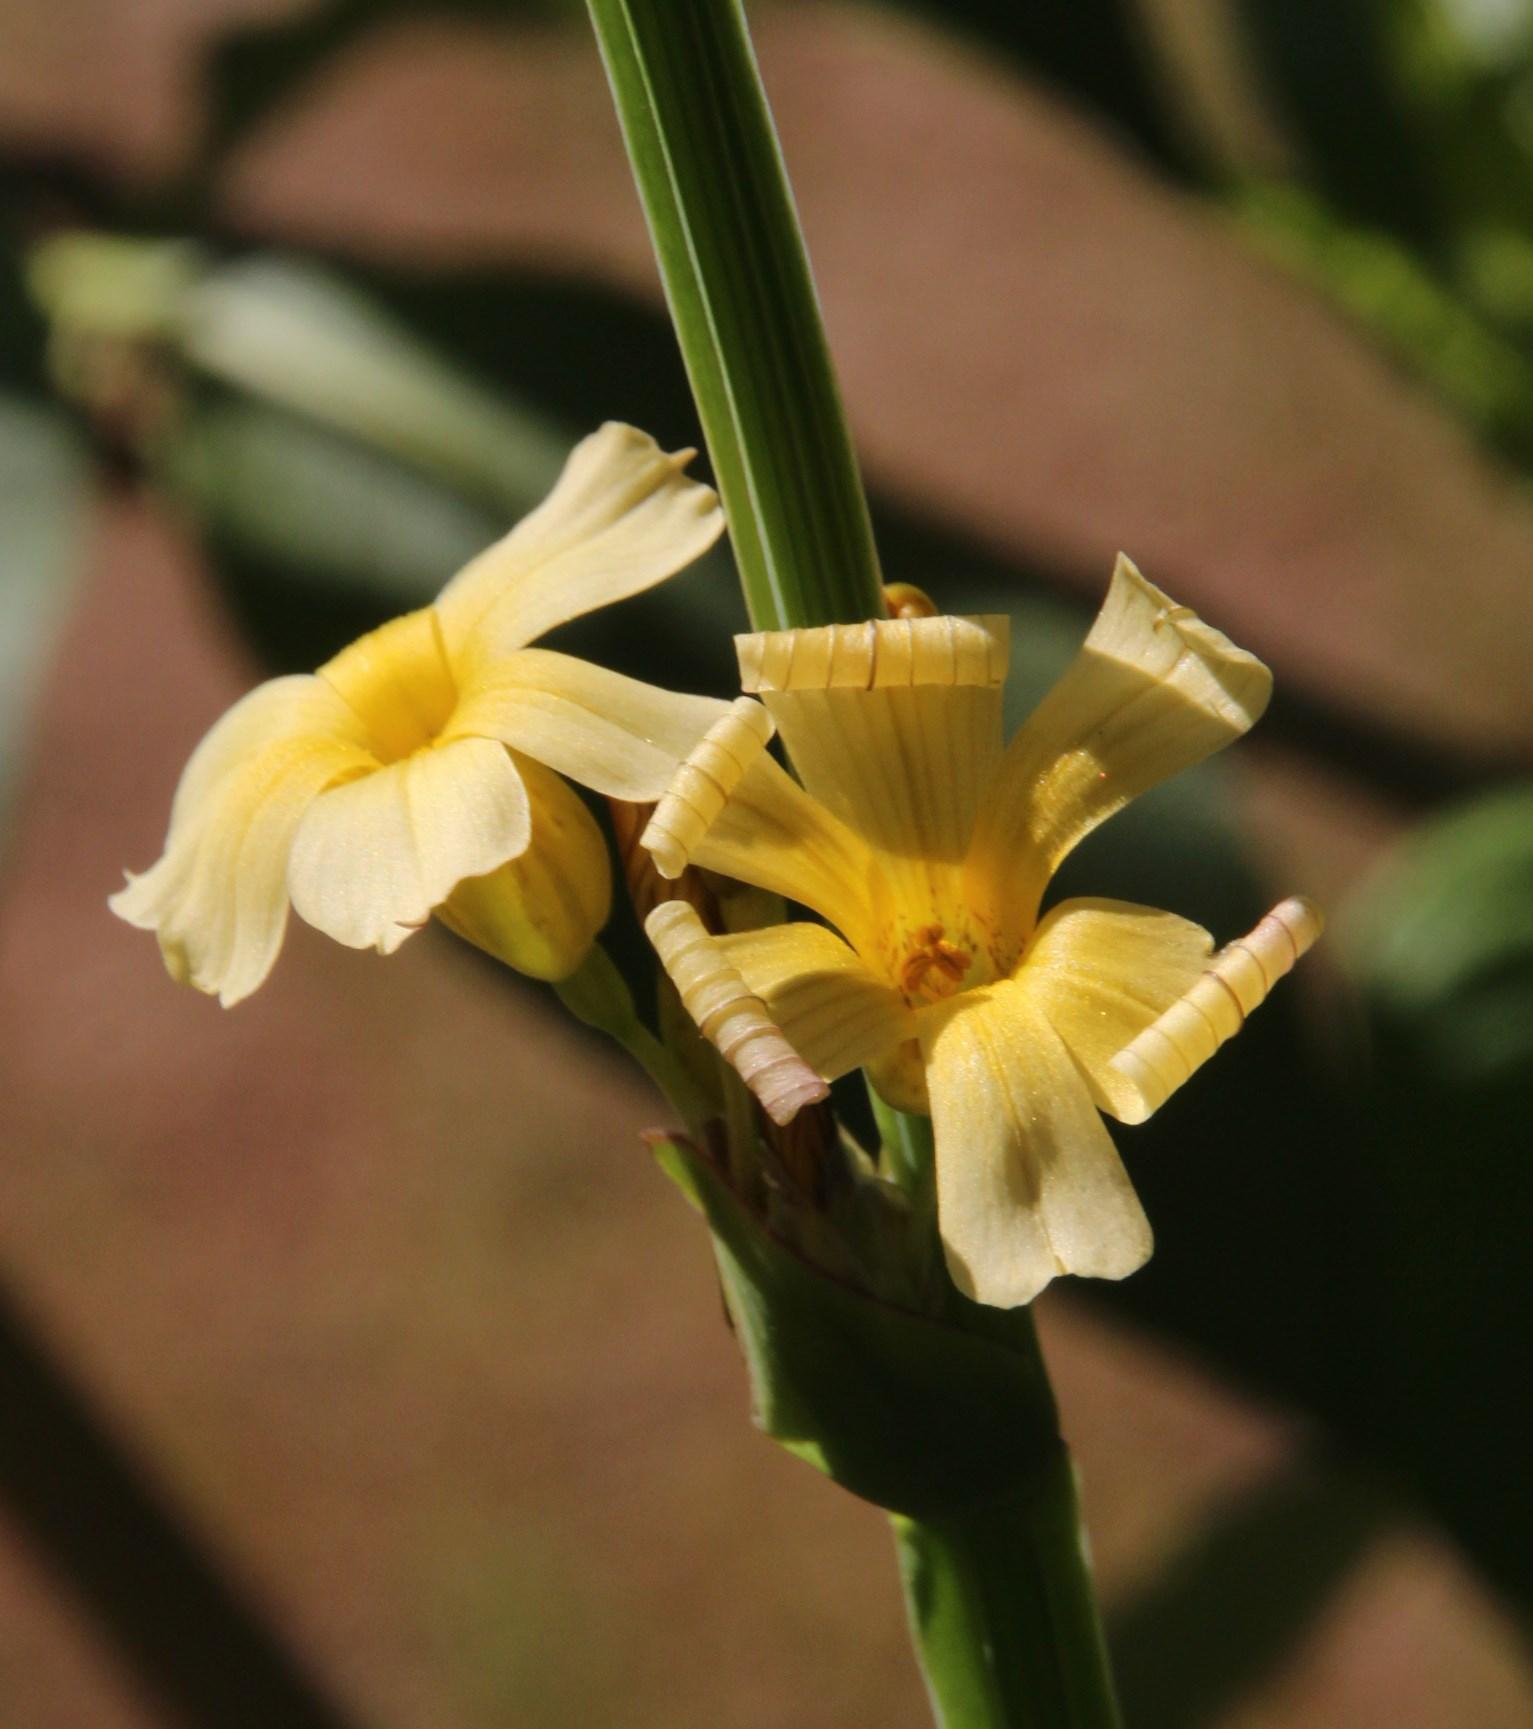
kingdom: Plantae
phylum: Tracheophyta
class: Liliopsida
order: Asparagales
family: Iridaceae
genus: Sisyrinchium
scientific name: Sisyrinchium striatum
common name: Pale yellow-eyed-grass
